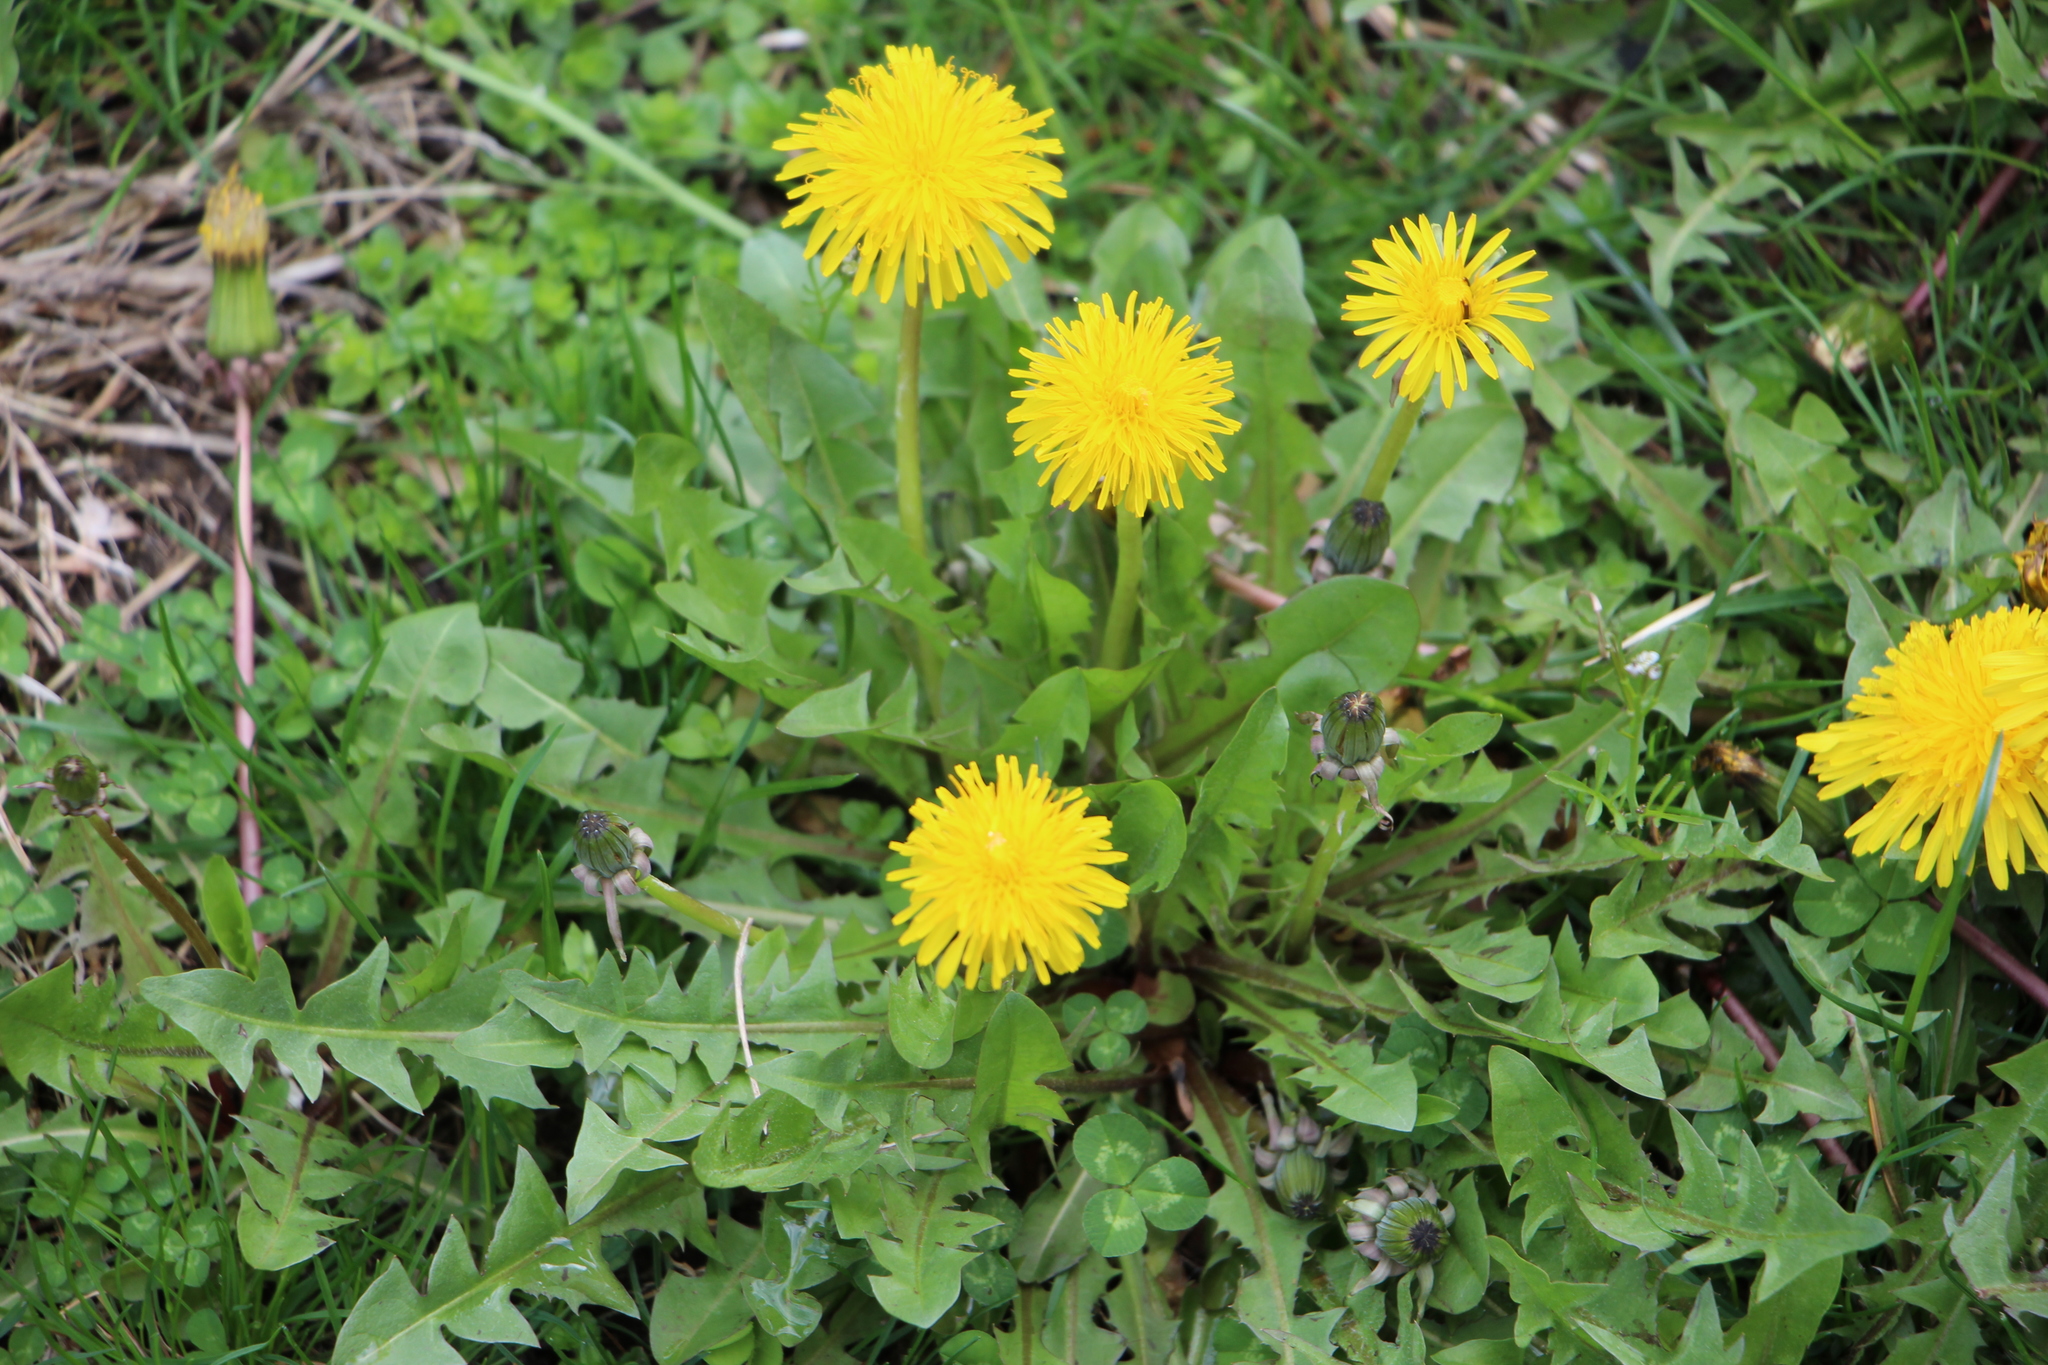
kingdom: Plantae
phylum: Tracheophyta
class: Magnoliopsida
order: Asterales
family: Asteraceae
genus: Taraxacum
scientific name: Taraxacum officinale
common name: Common dandelion
